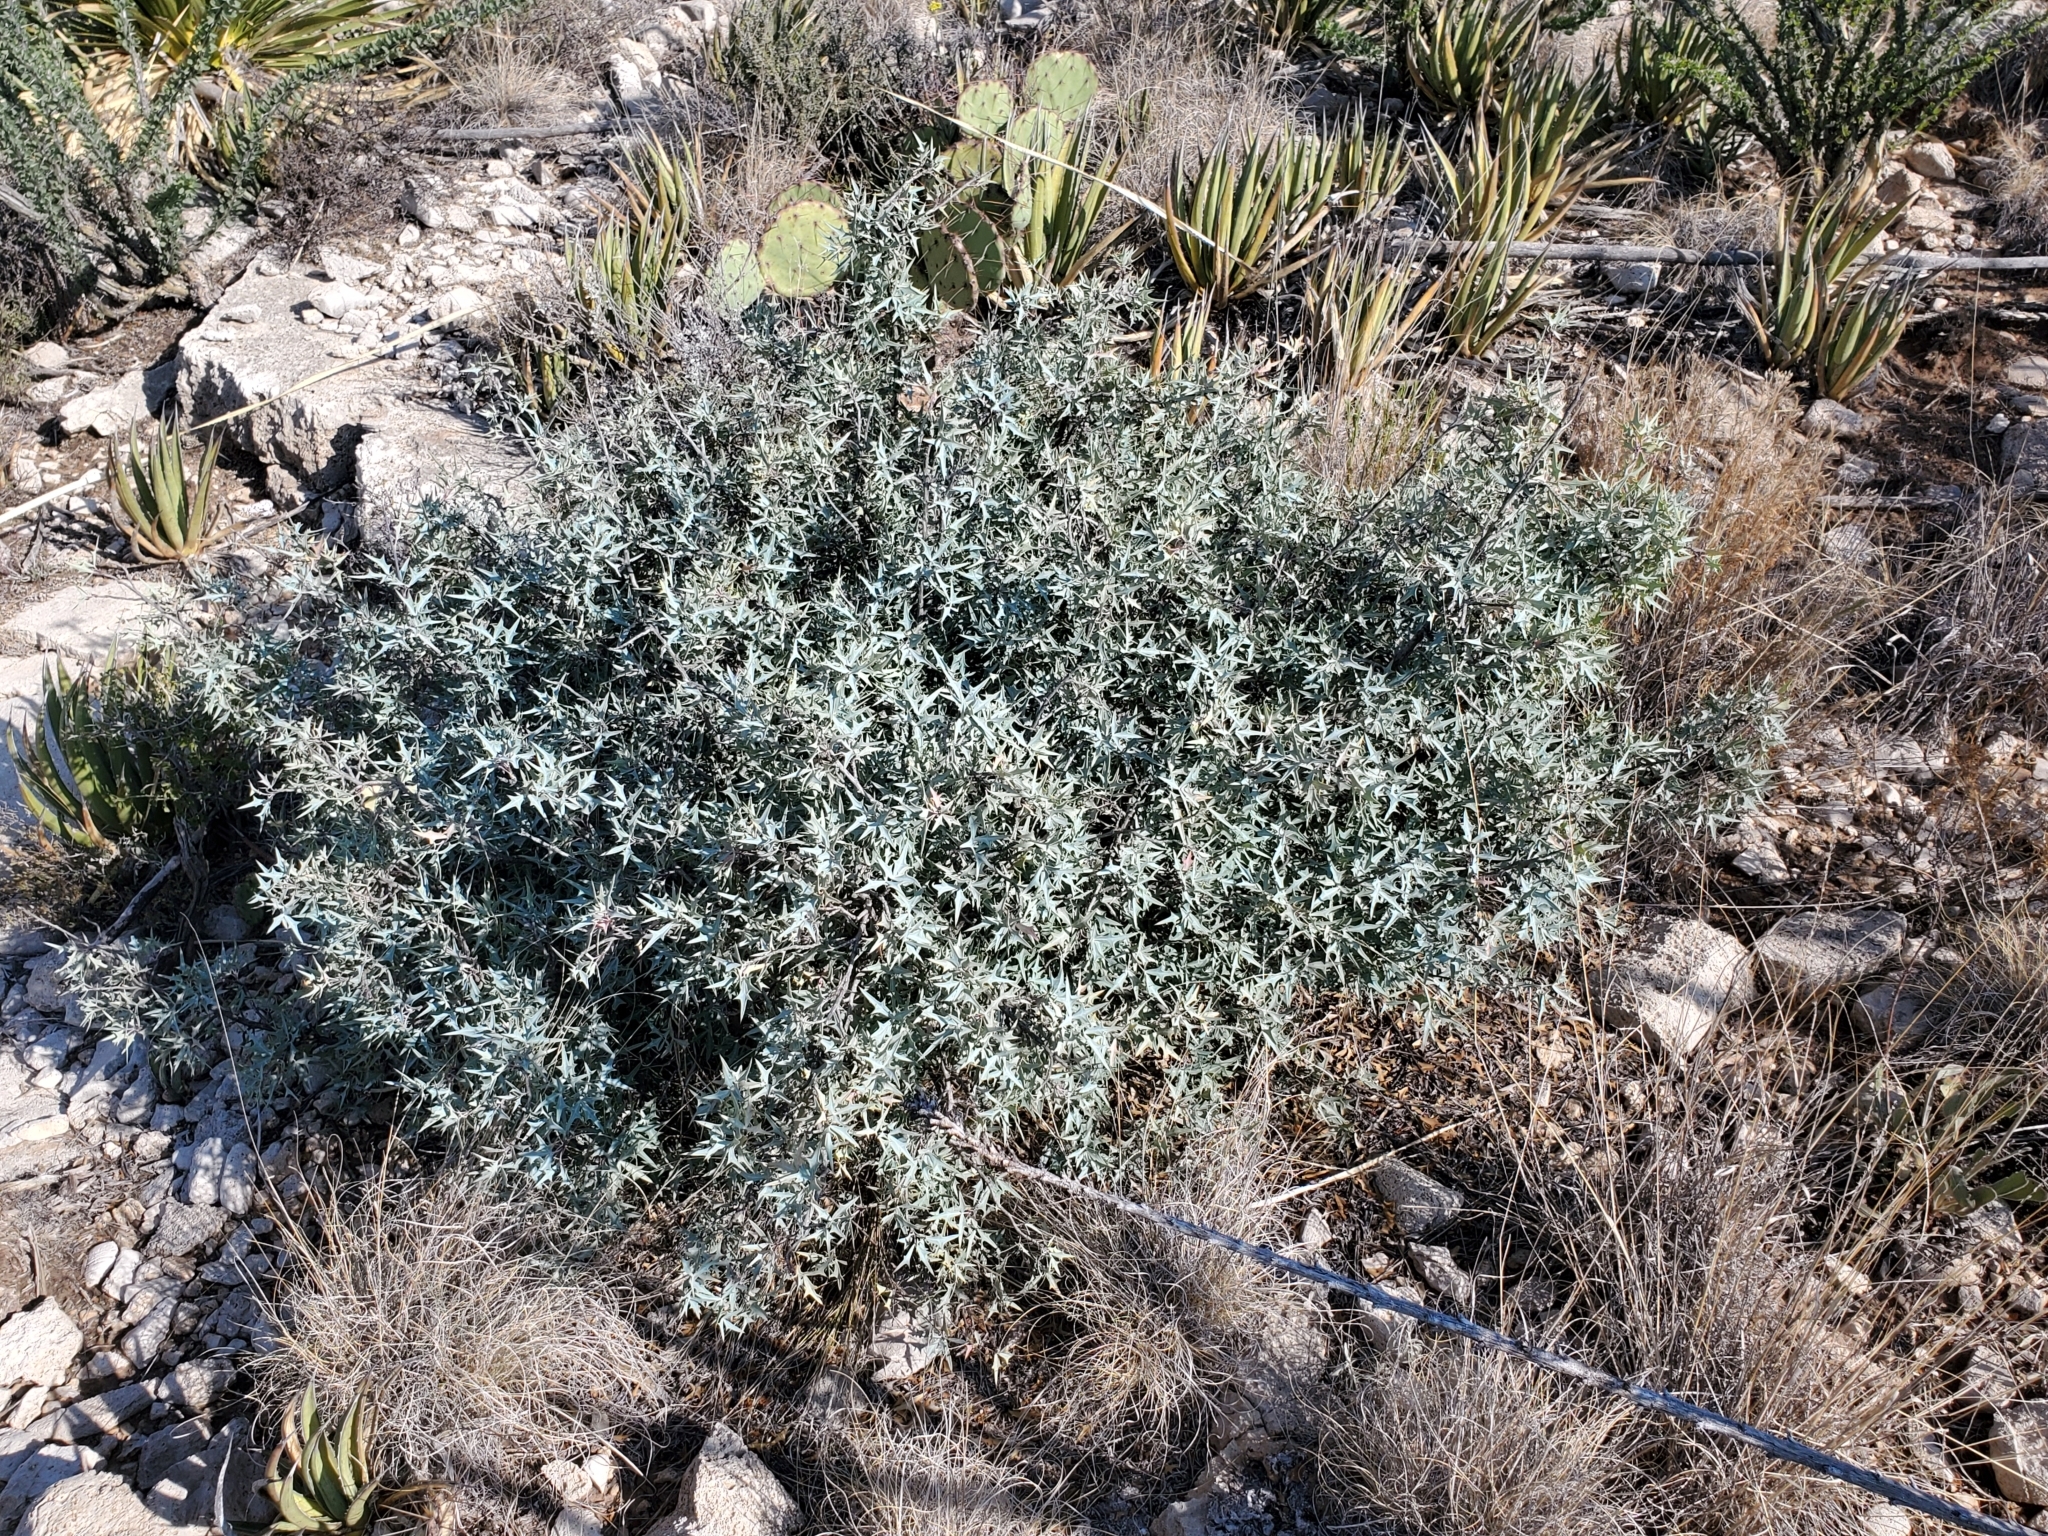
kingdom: Plantae
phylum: Tracheophyta
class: Magnoliopsida
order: Ranunculales
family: Berberidaceae
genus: Alloberberis
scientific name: Alloberberis trifoliolata
